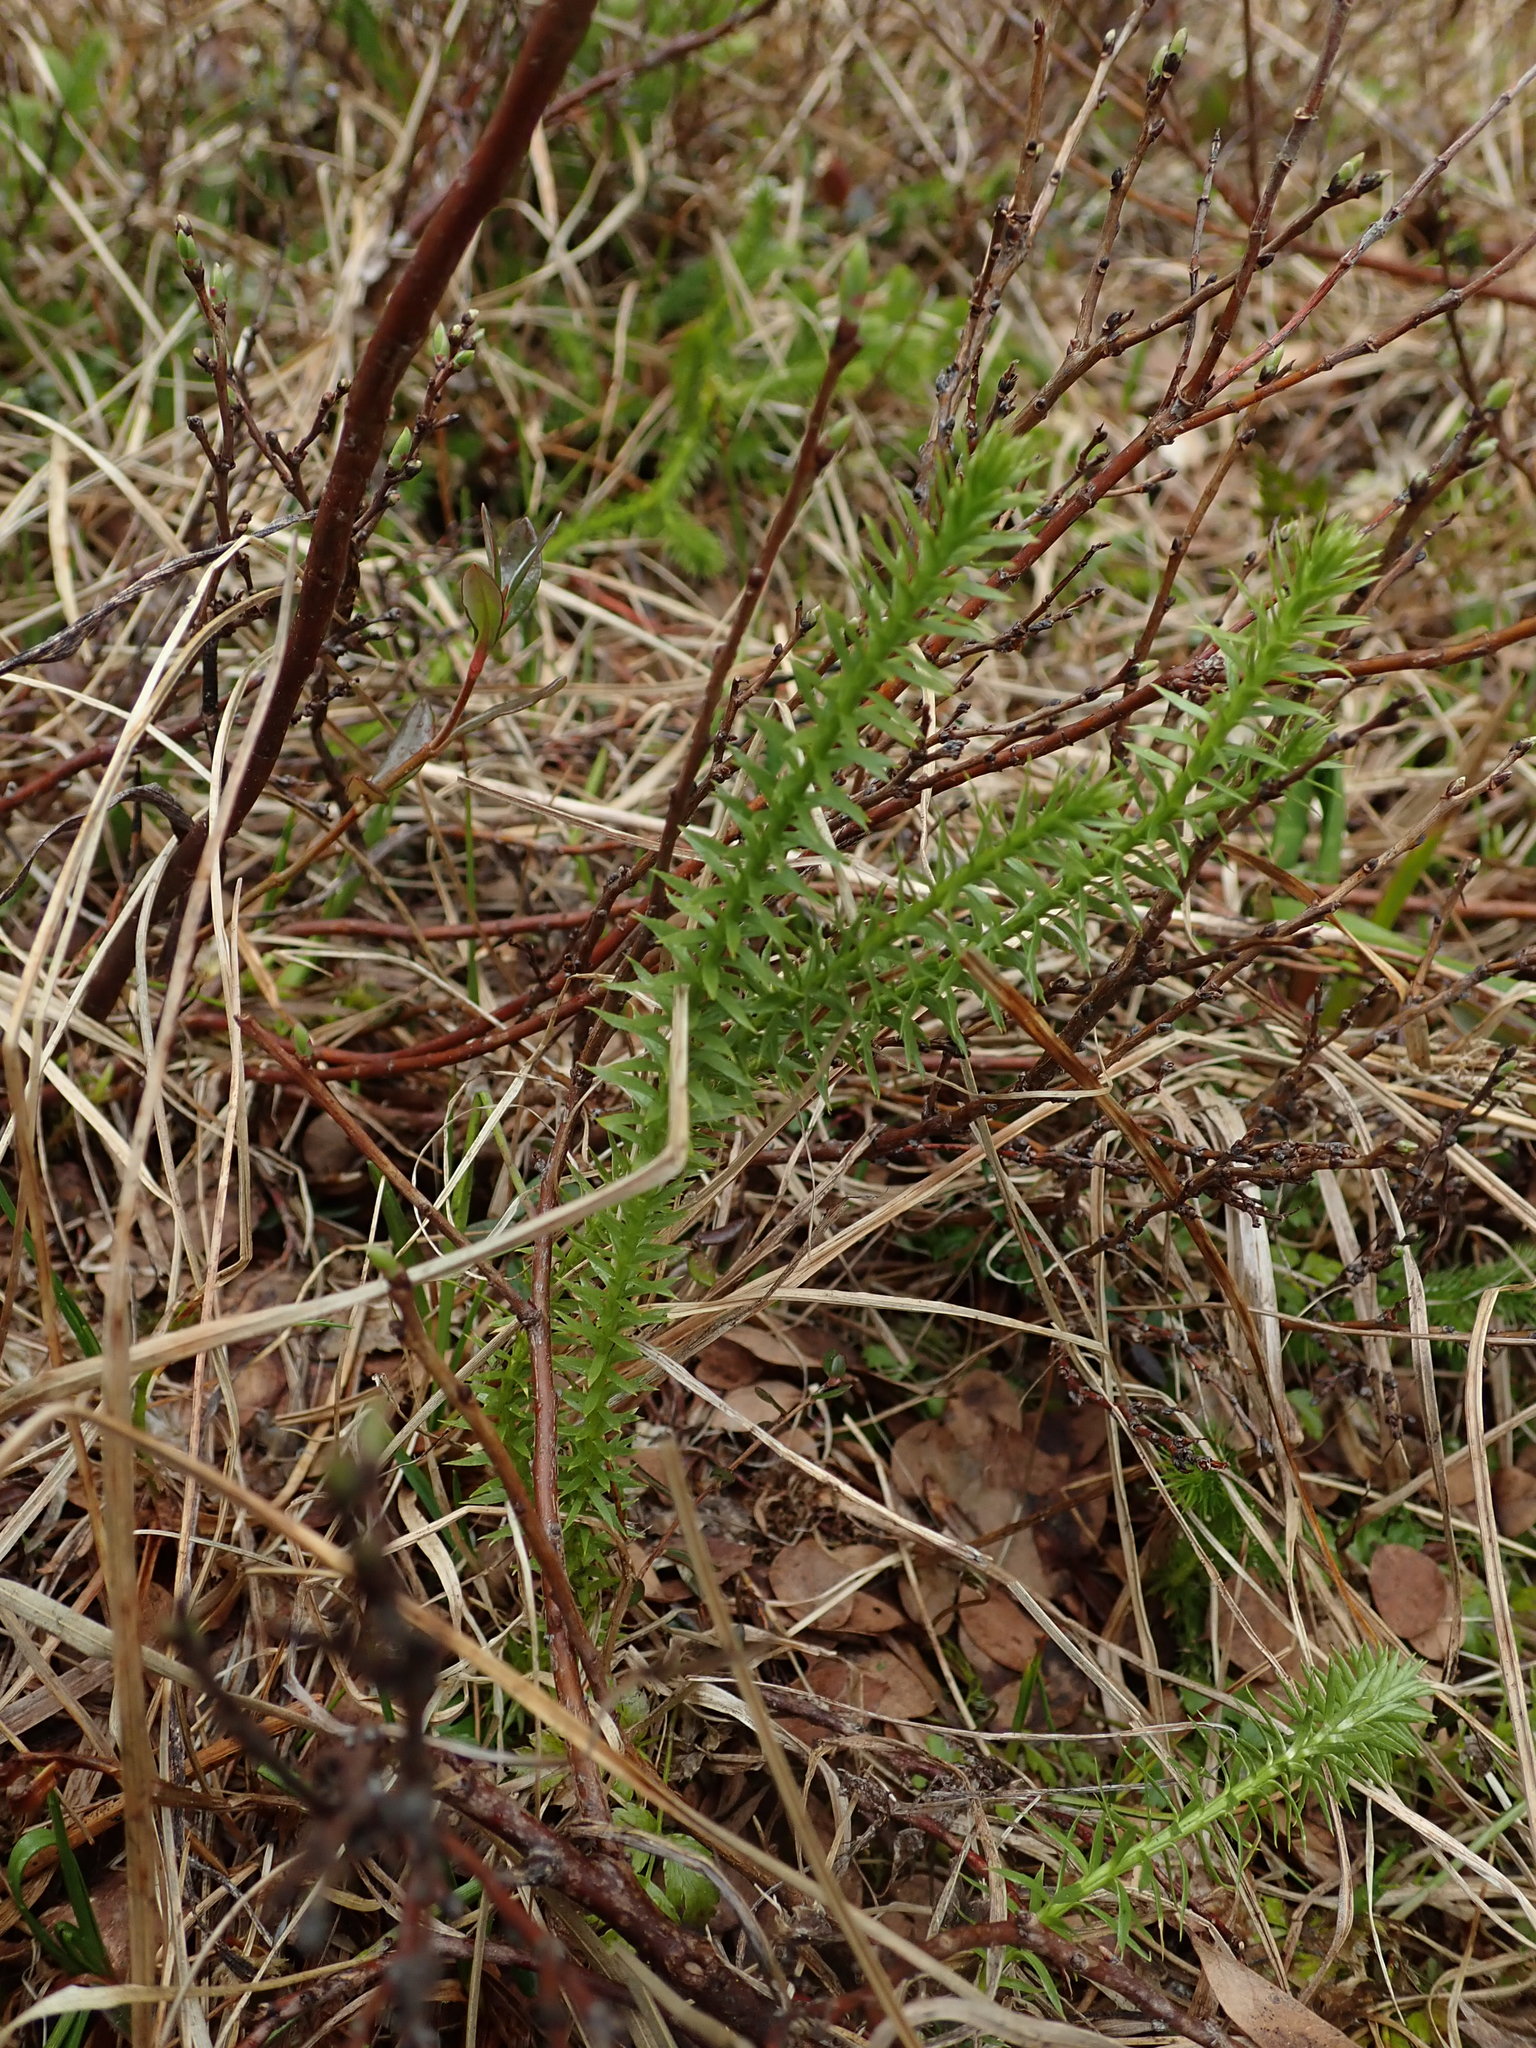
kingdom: Plantae
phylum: Tracheophyta
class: Lycopodiopsida
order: Lycopodiales
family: Lycopodiaceae
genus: Spinulum
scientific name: Spinulum annotinum
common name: Interrupted club-moss
